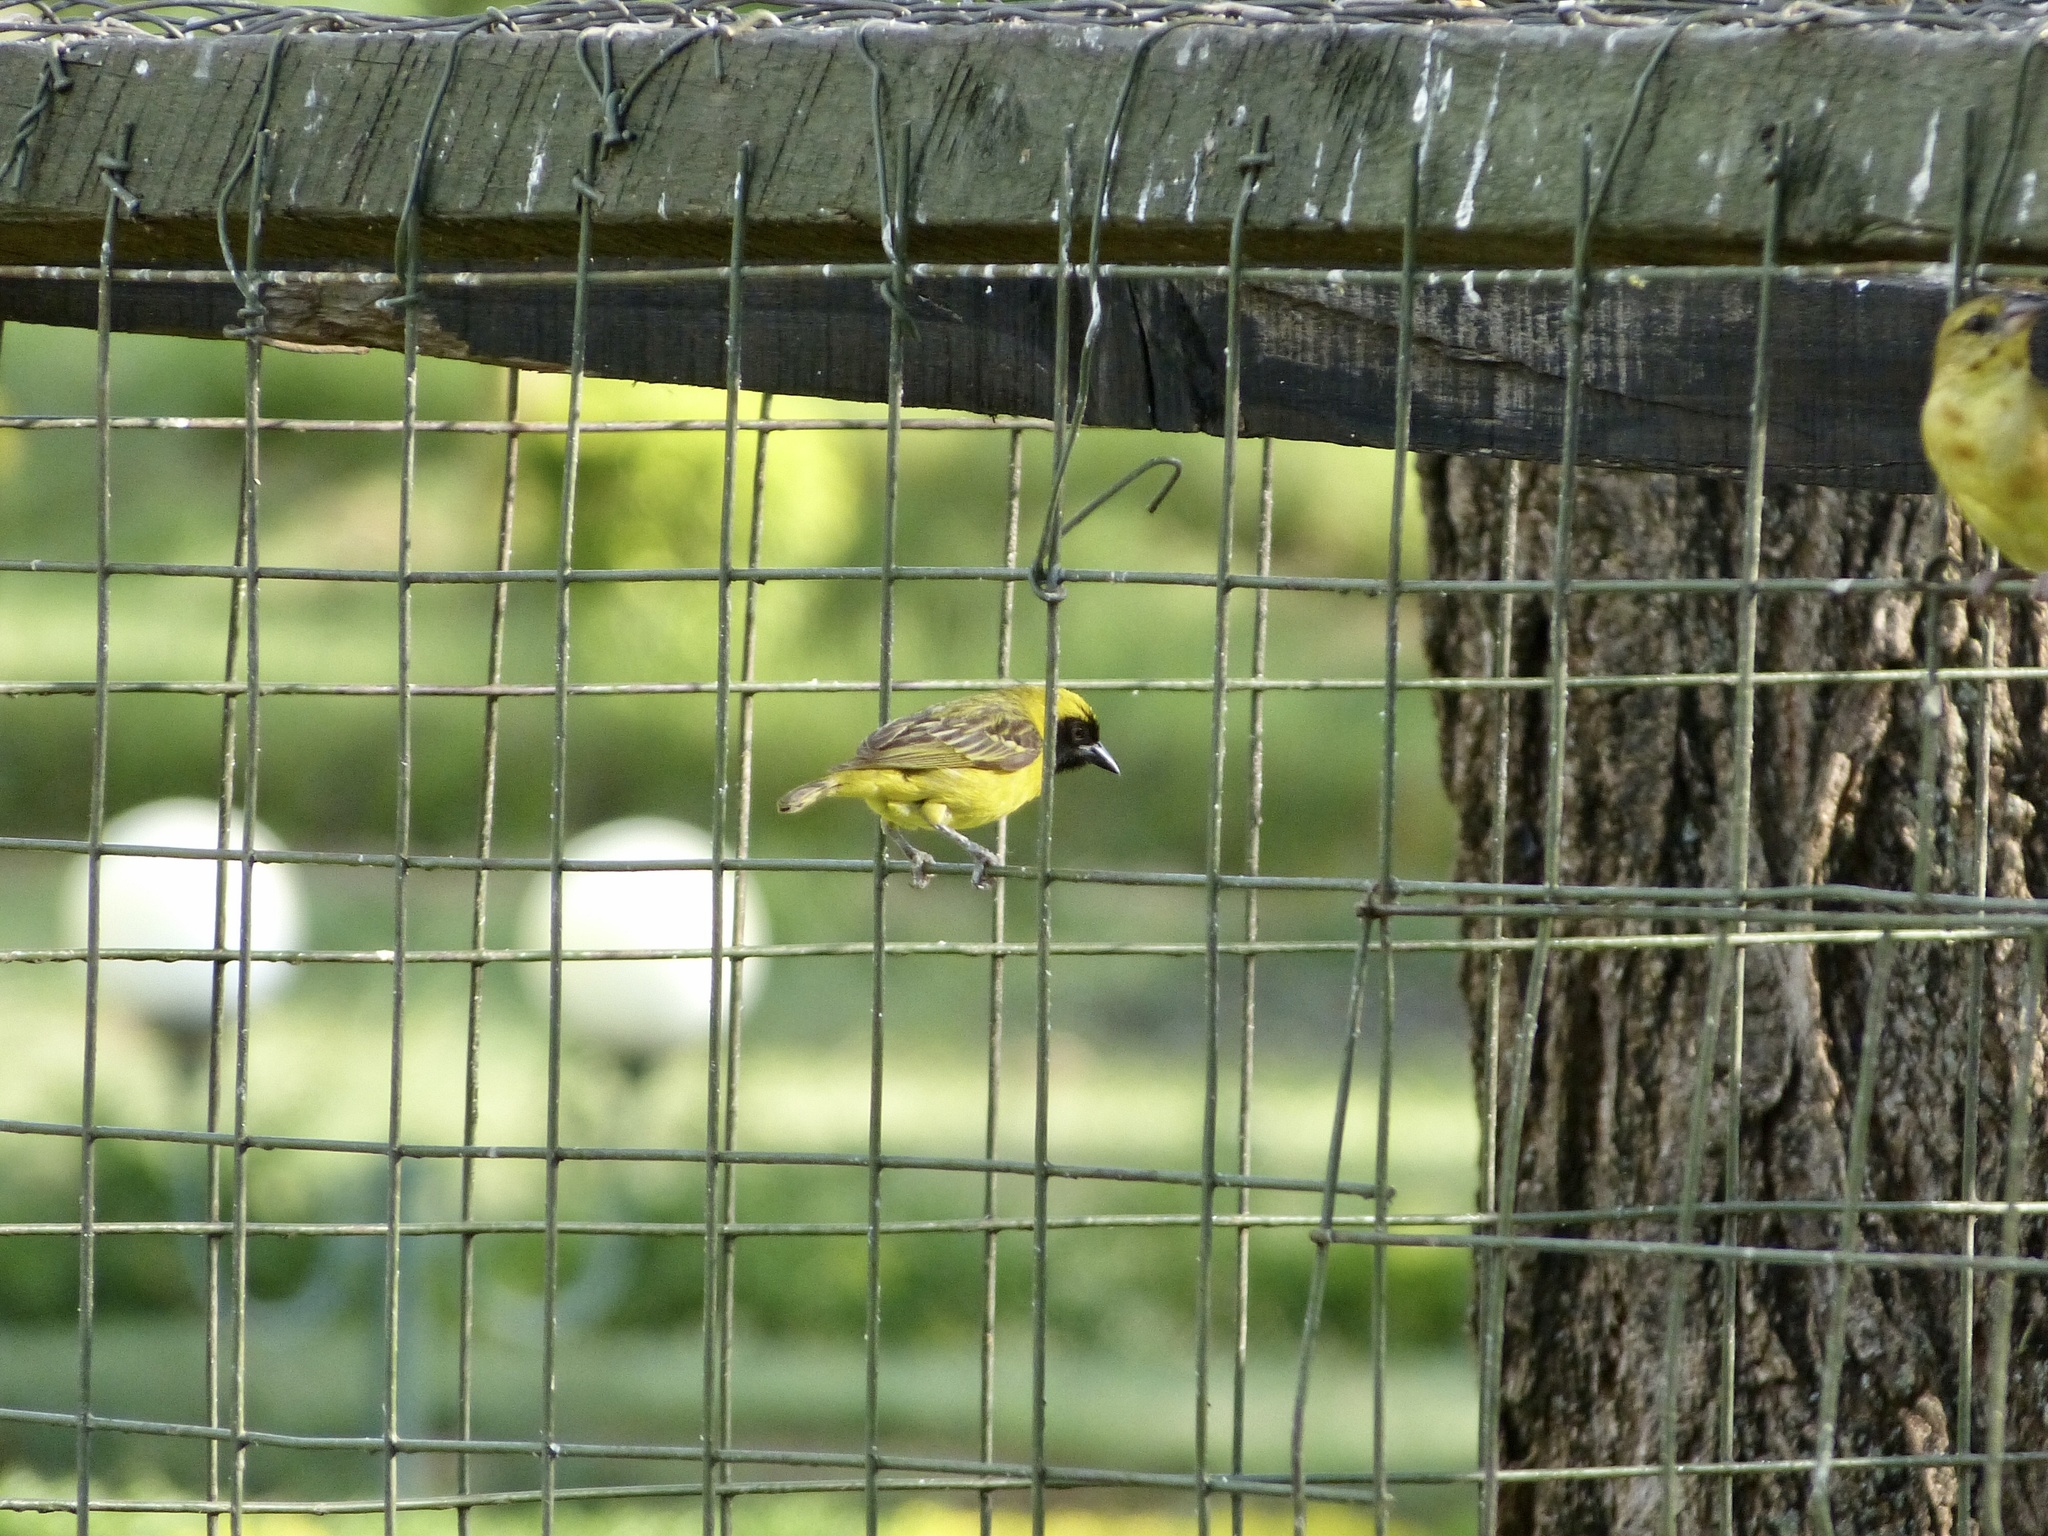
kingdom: Animalia
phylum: Chordata
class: Aves
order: Passeriformes
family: Ploceidae
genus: Ploceus
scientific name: Ploceus luteolus
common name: Little weaver
